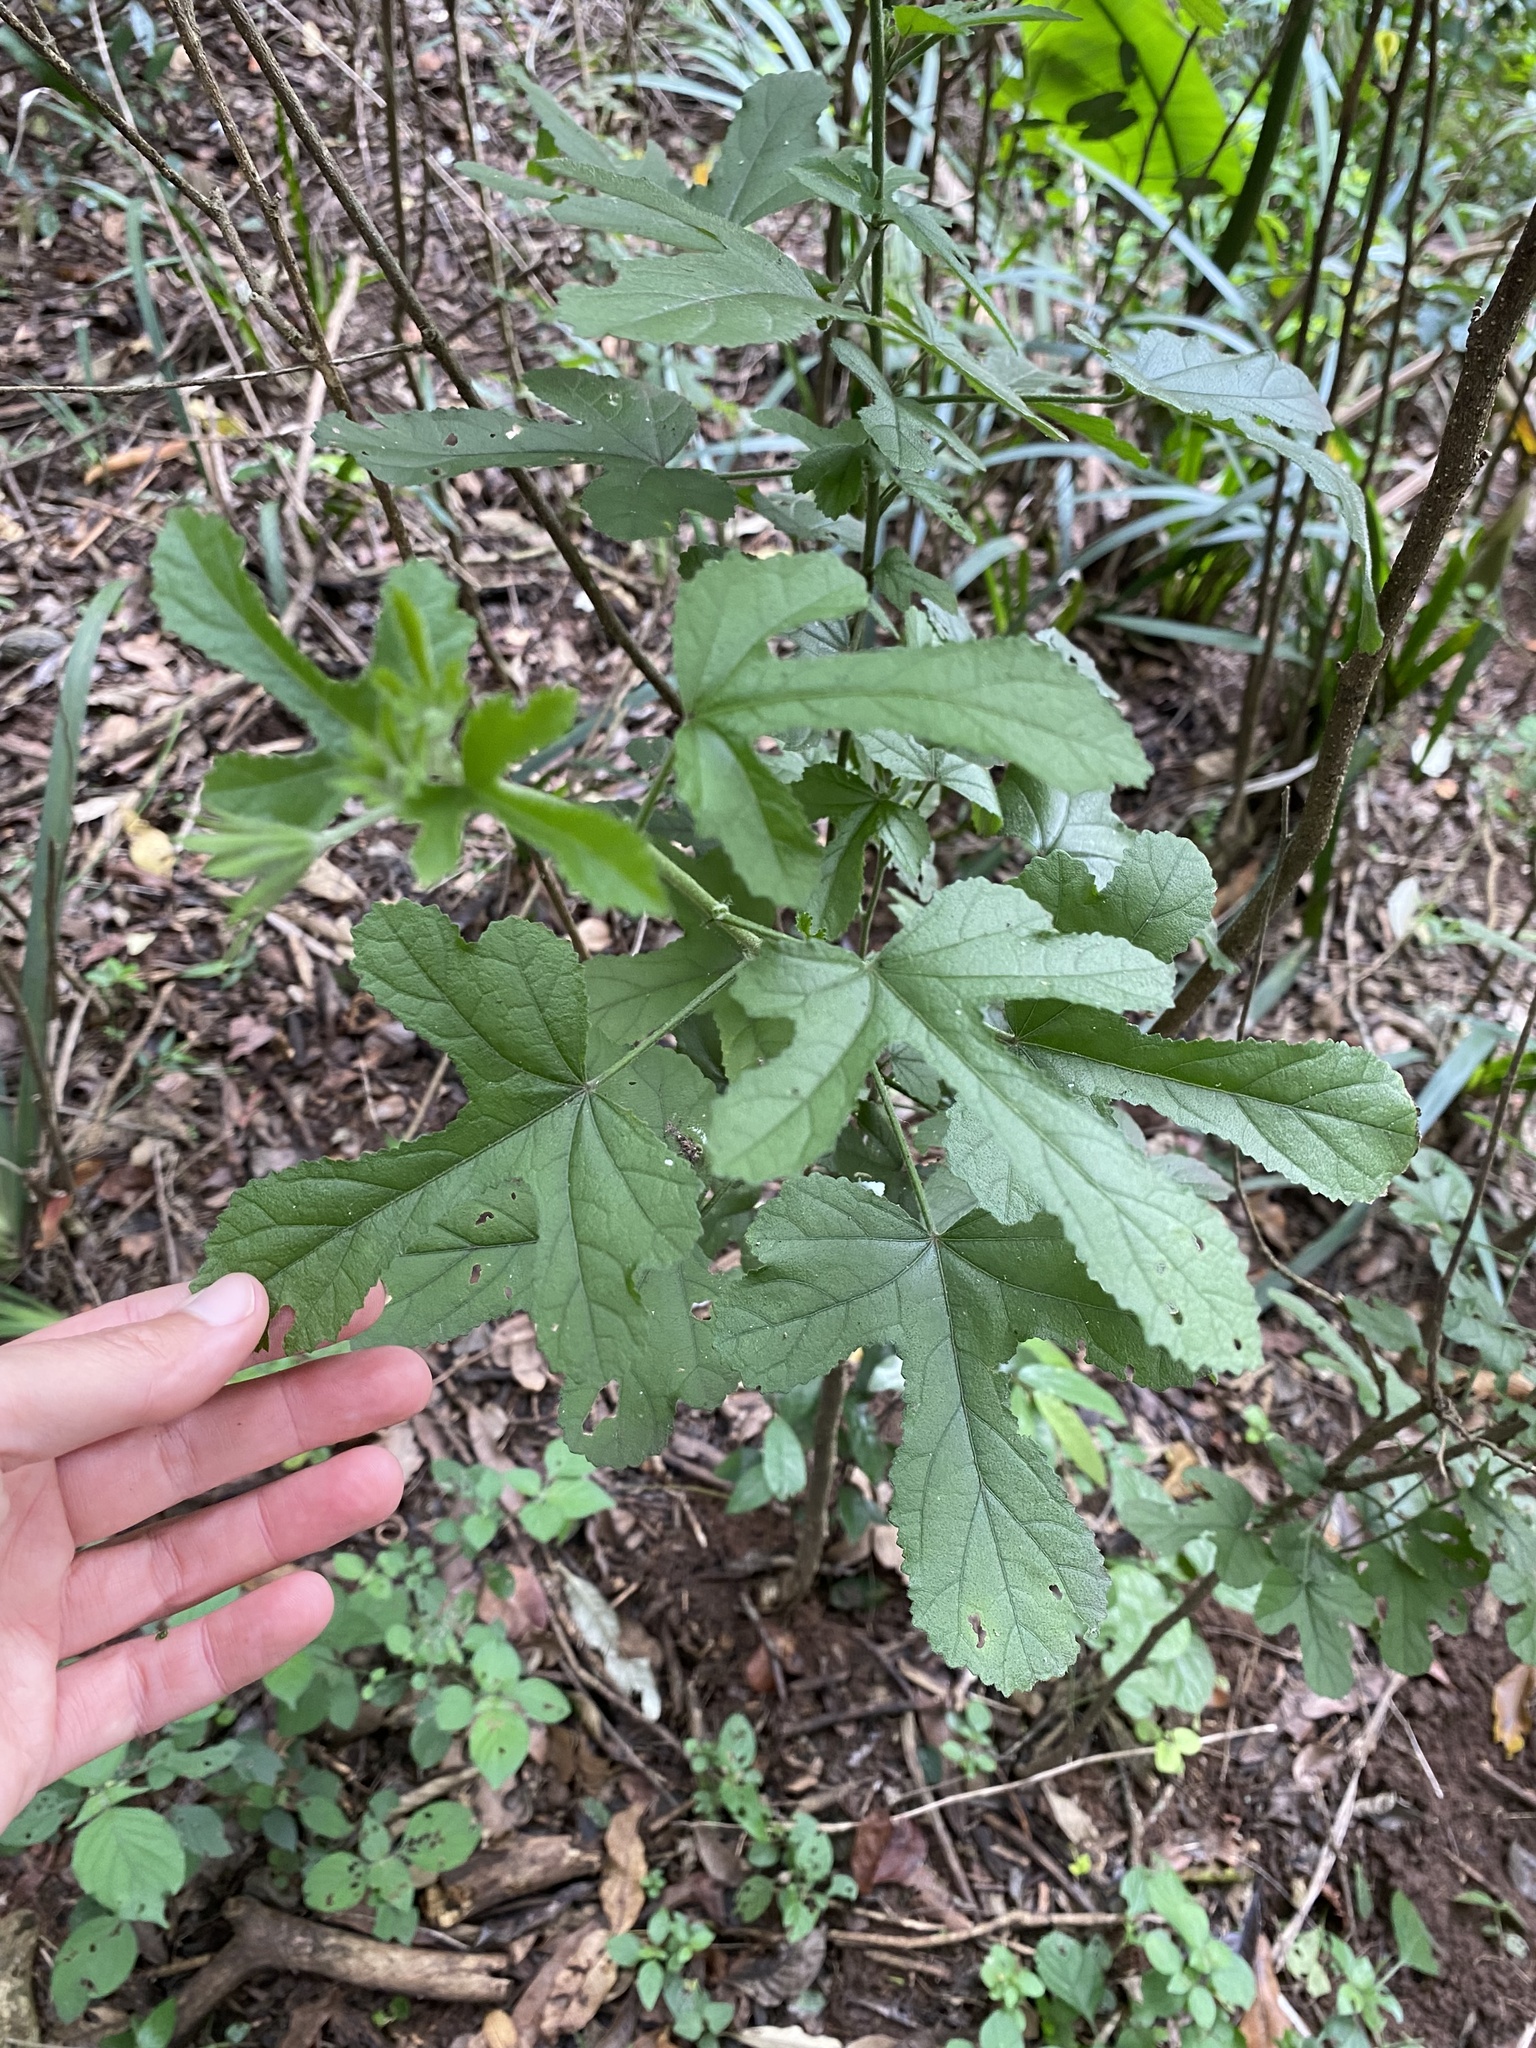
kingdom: Plantae
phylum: Tracheophyta
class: Magnoliopsida
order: Malvales
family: Malvaceae
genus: Hibiscus
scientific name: Hibiscus pedunculatus
